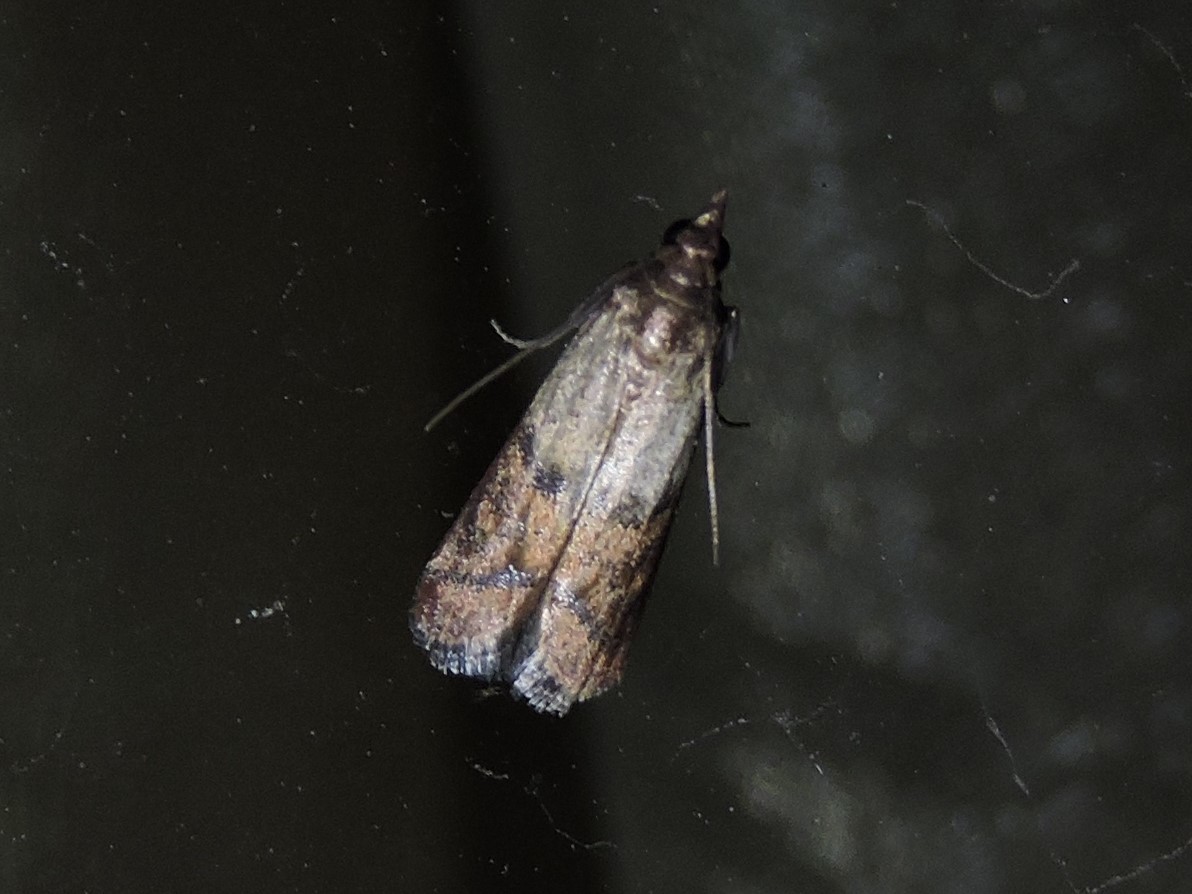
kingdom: Animalia
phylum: Arthropoda
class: Insecta
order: Lepidoptera
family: Pyralidae
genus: Plodia
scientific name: Plodia interpunctella
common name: Indian meal moth
